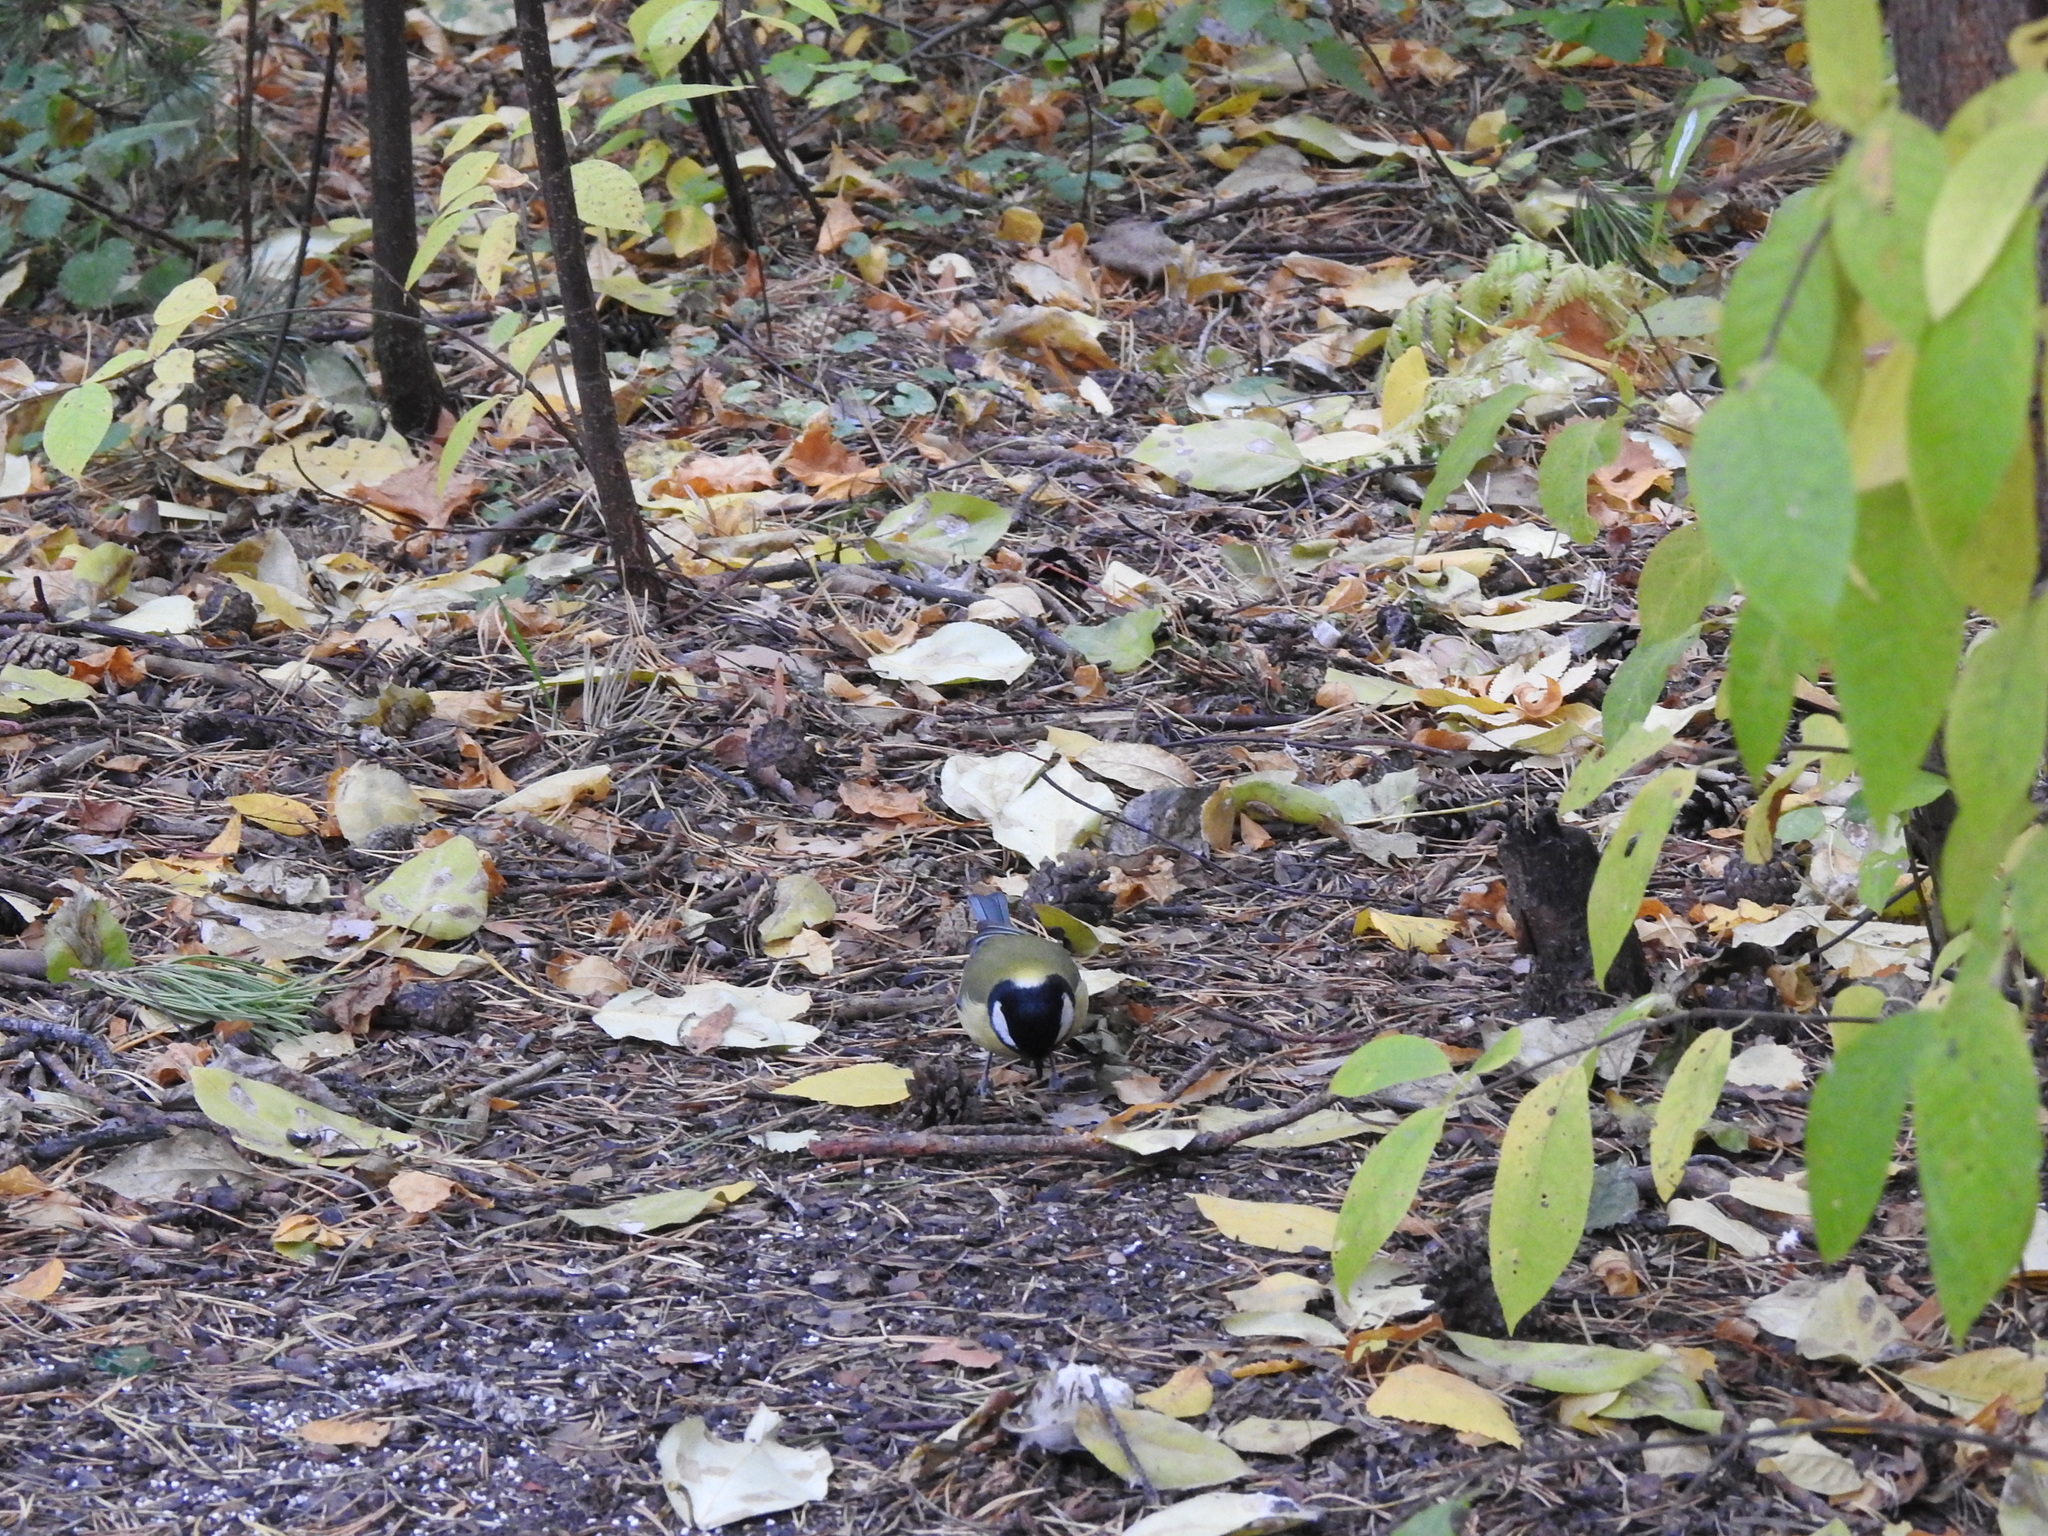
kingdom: Animalia
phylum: Chordata
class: Aves
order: Passeriformes
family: Paridae
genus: Parus
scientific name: Parus major
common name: Great tit
